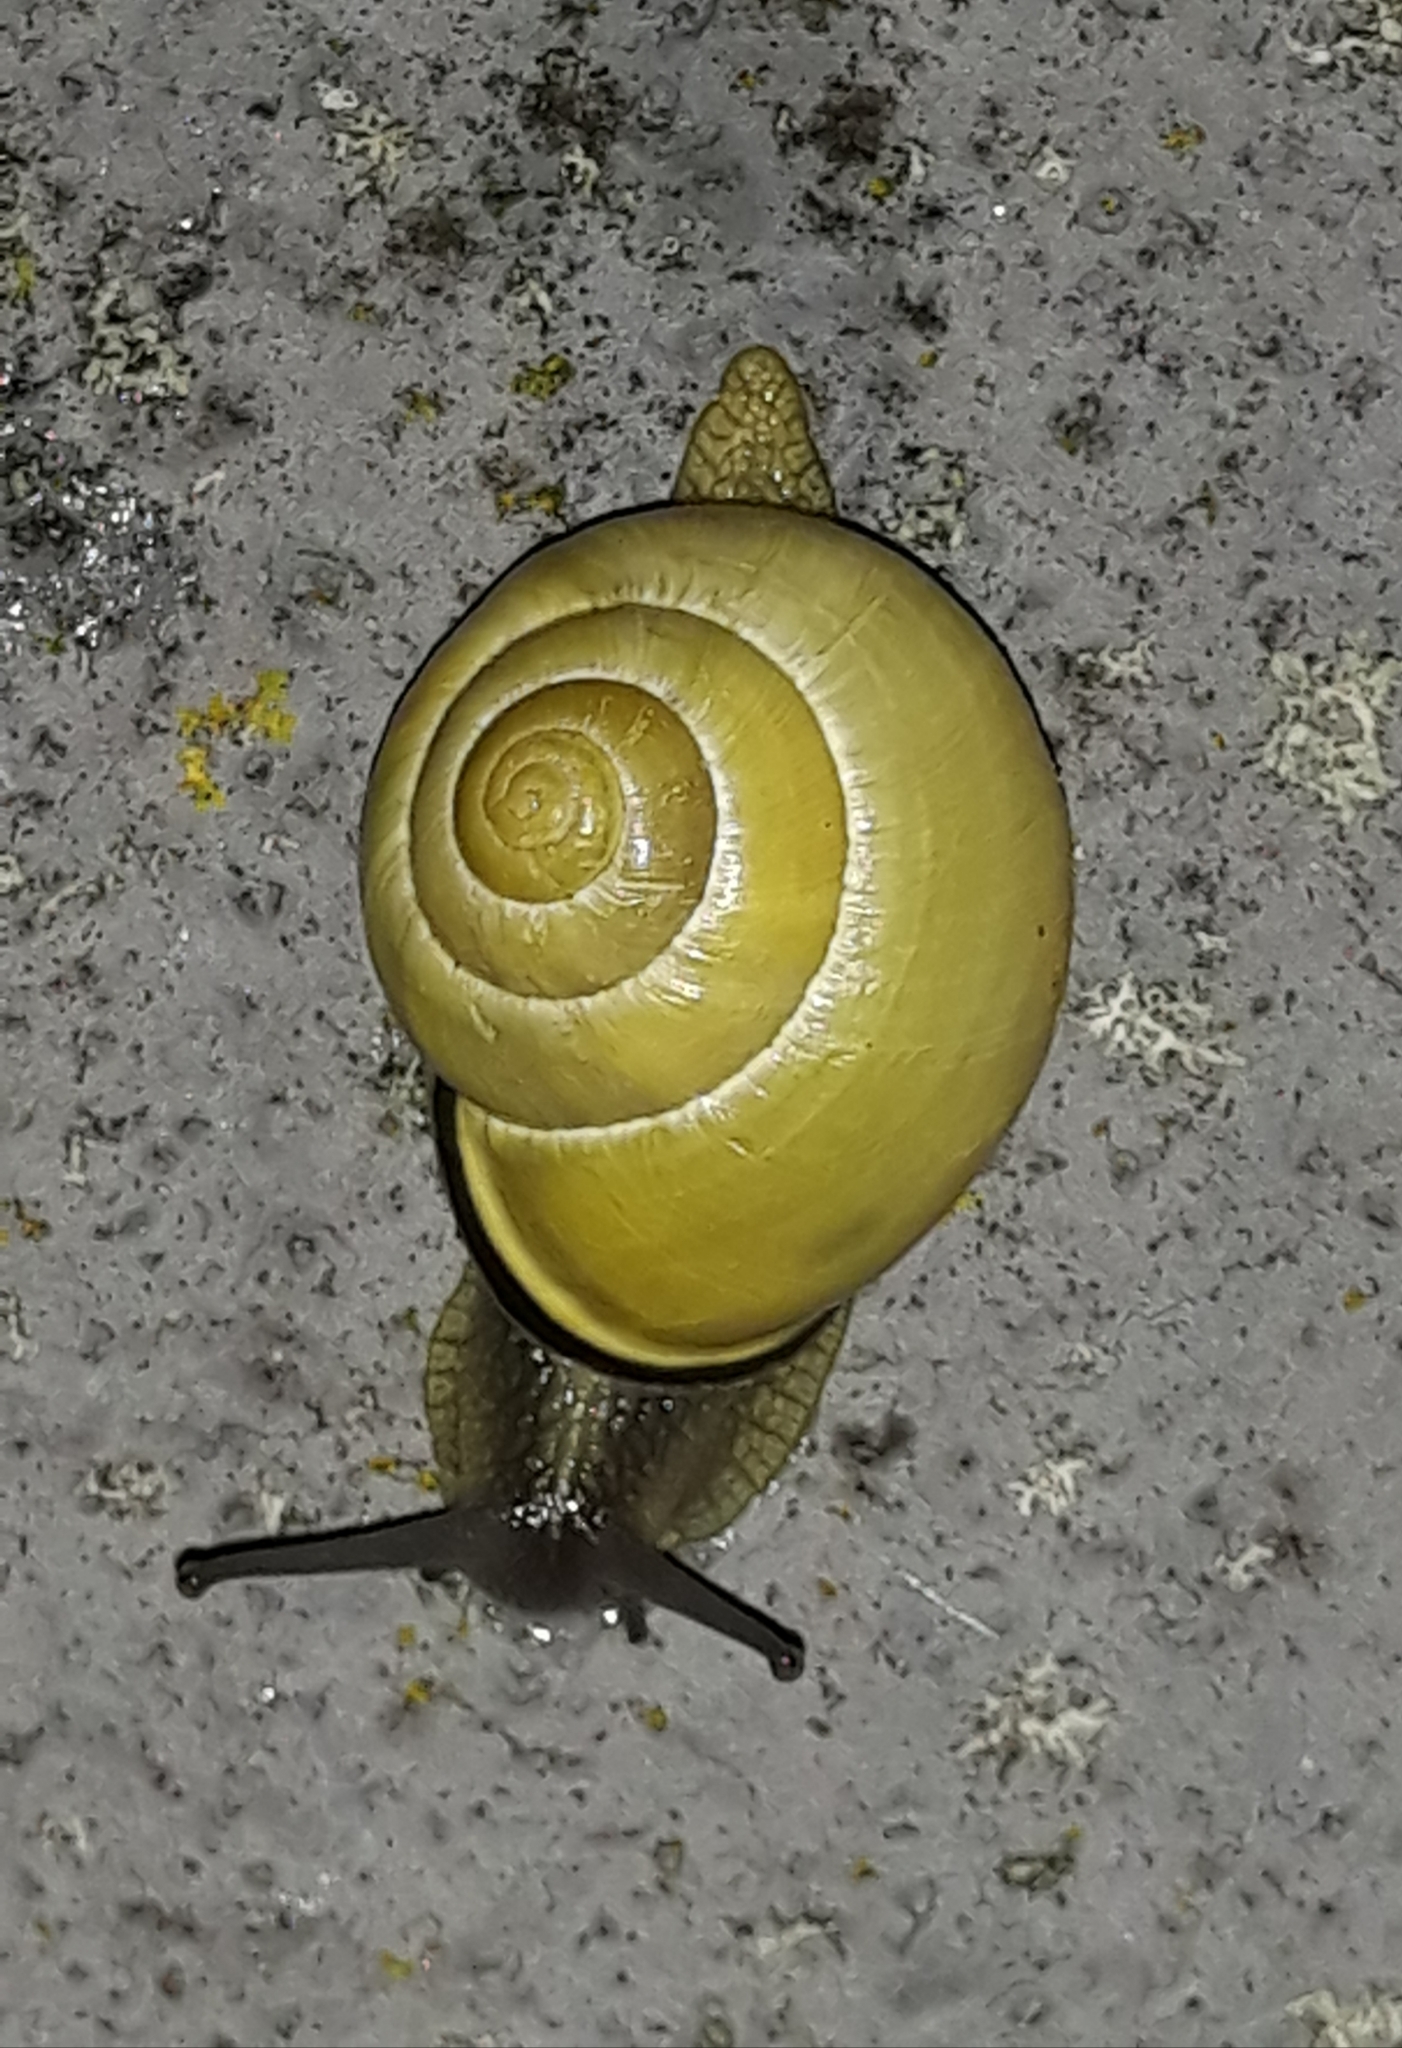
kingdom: Animalia
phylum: Mollusca
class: Gastropoda
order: Stylommatophora
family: Helicidae
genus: Cepaea
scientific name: Cepaea nemoralis
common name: Grovesnail
